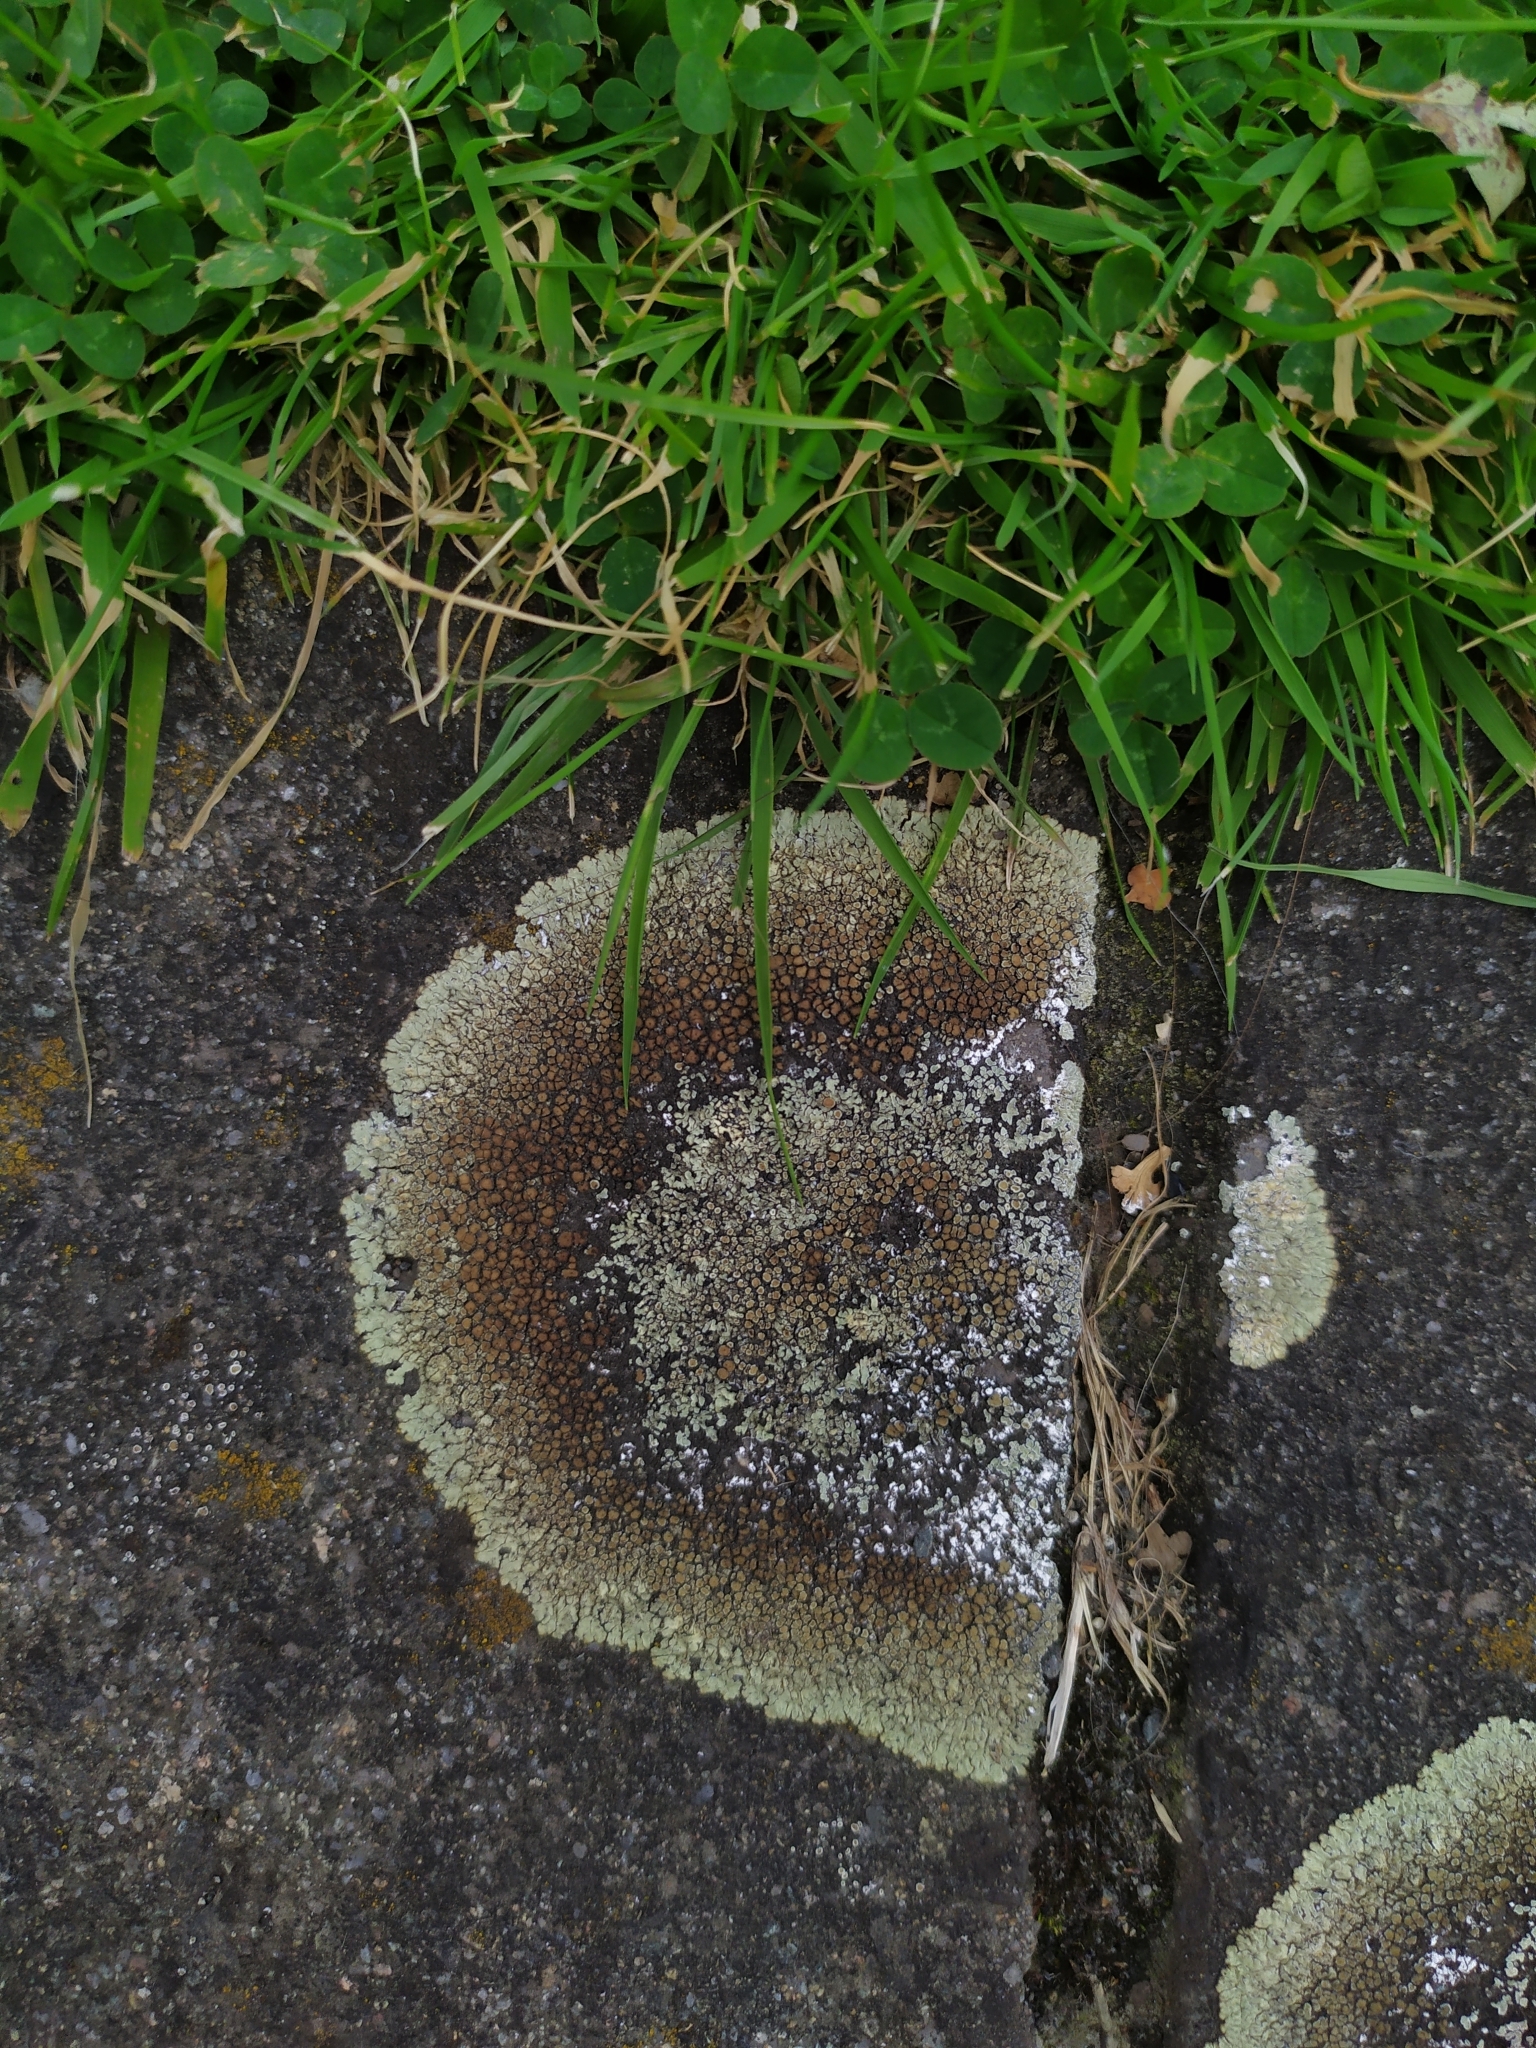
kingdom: Fungi
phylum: Ascomycota
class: Lecanoromycetes
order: Lecanorales
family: Lecanoraceae
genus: Protoparmeliopsis
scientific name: Protoparmeliopsis muralis
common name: Stonewall rim lichen
